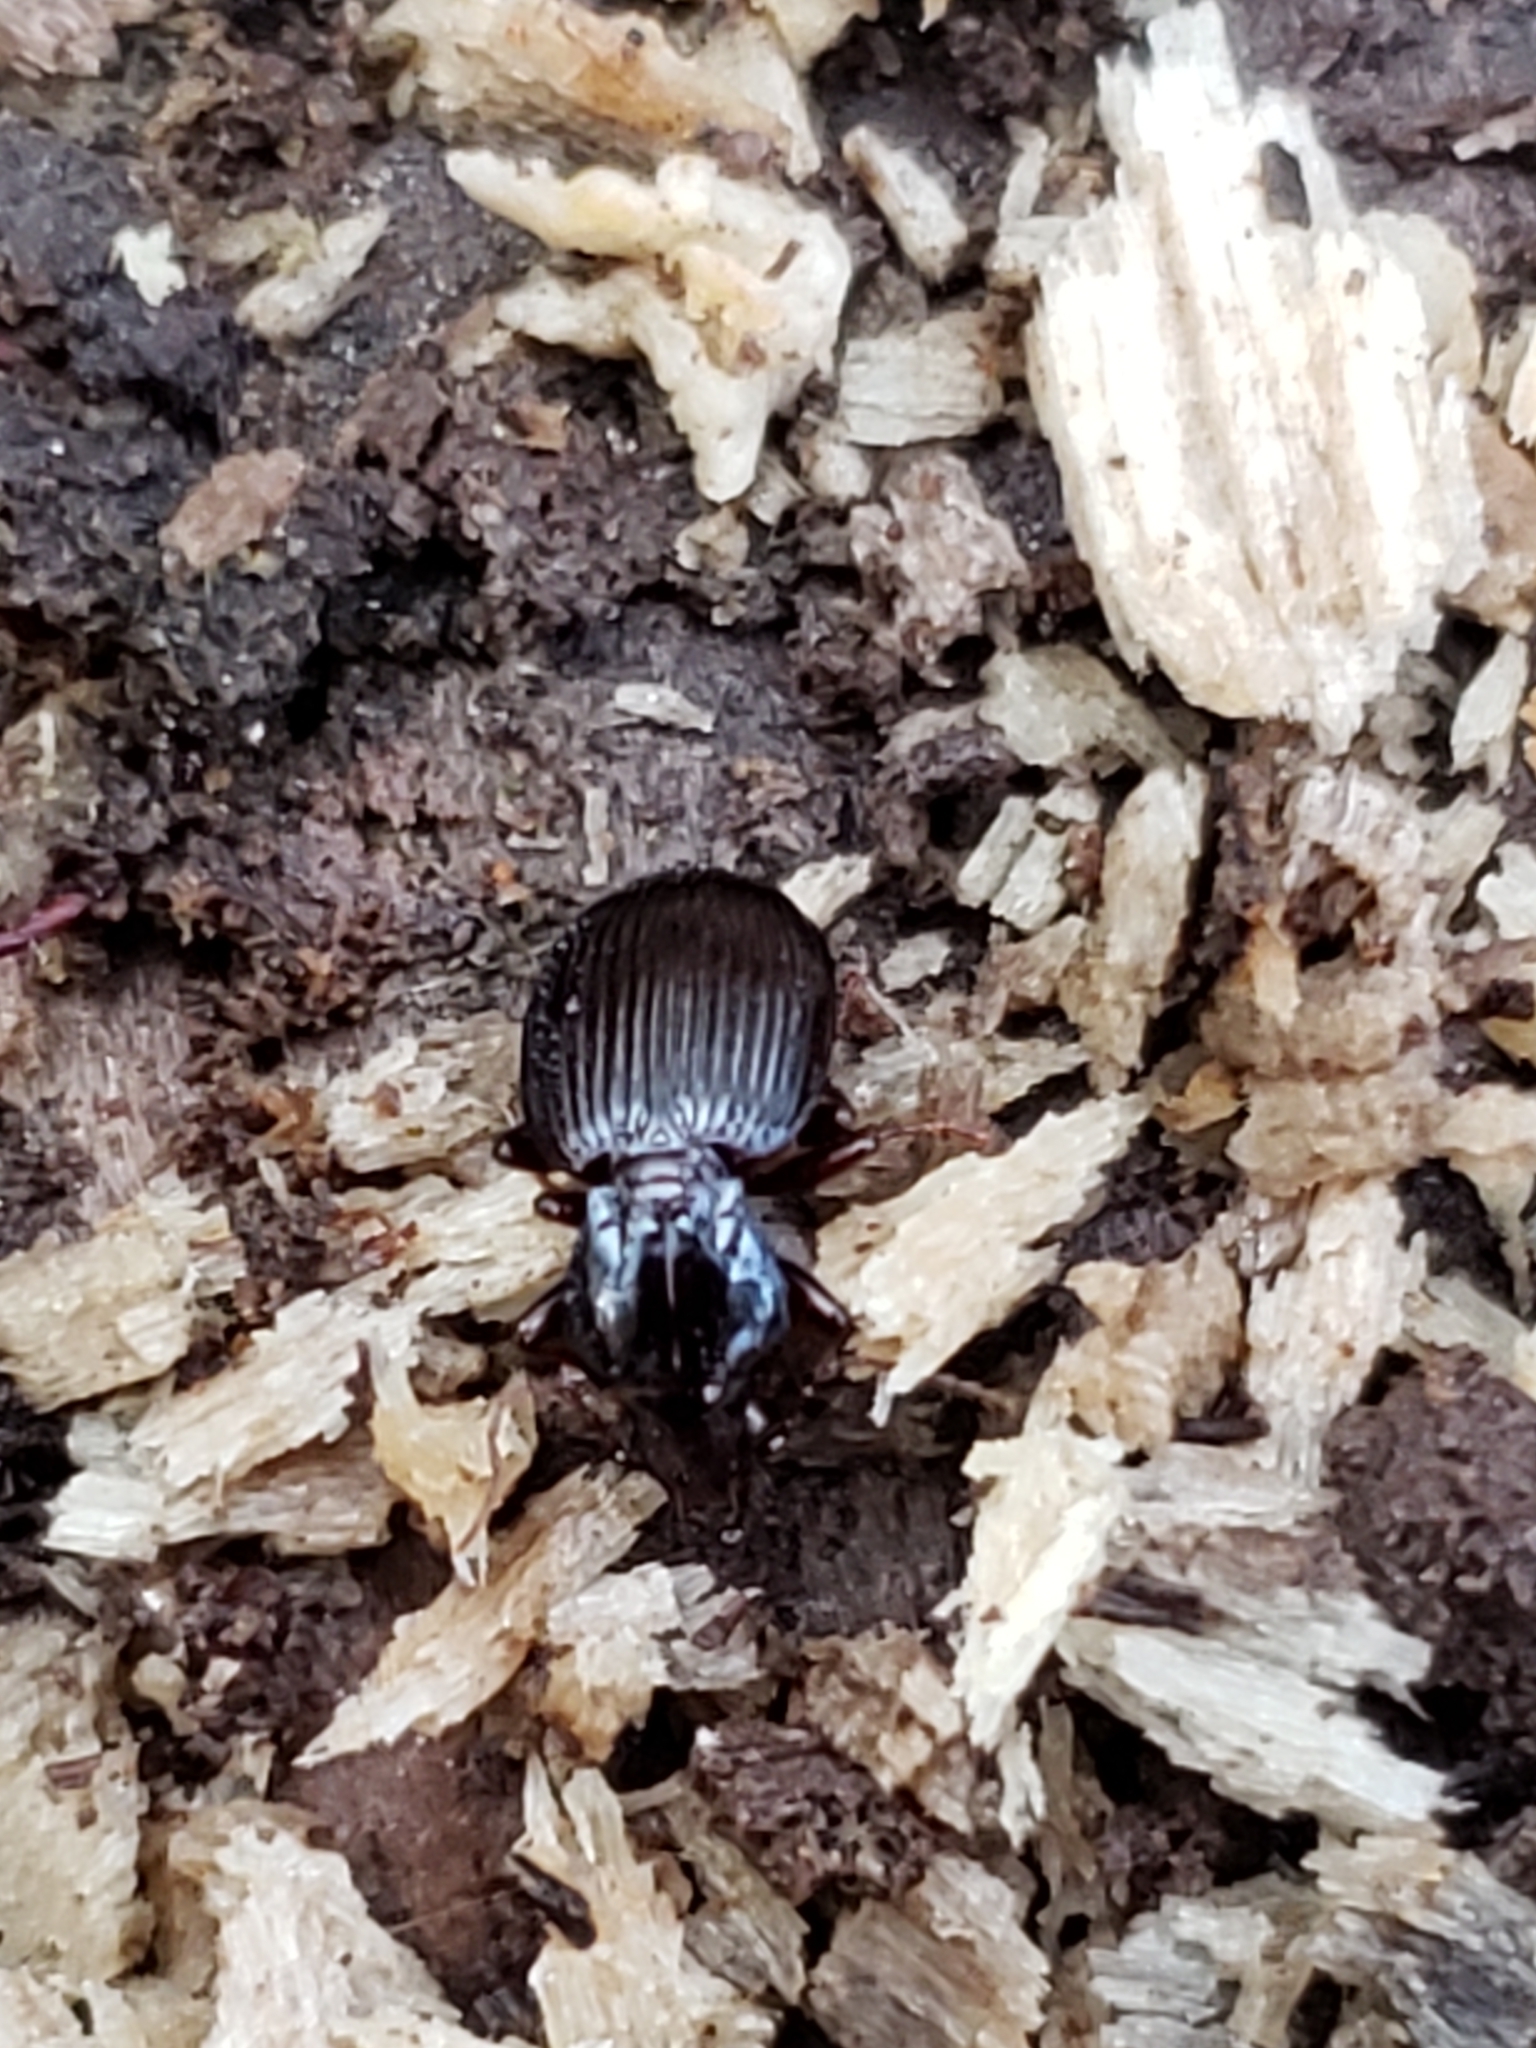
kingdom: Animalia
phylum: Arthropoda
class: Insecta
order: Coleoptera
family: Carabidae
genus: Gastrellarius
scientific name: Gastrellarius honestus
